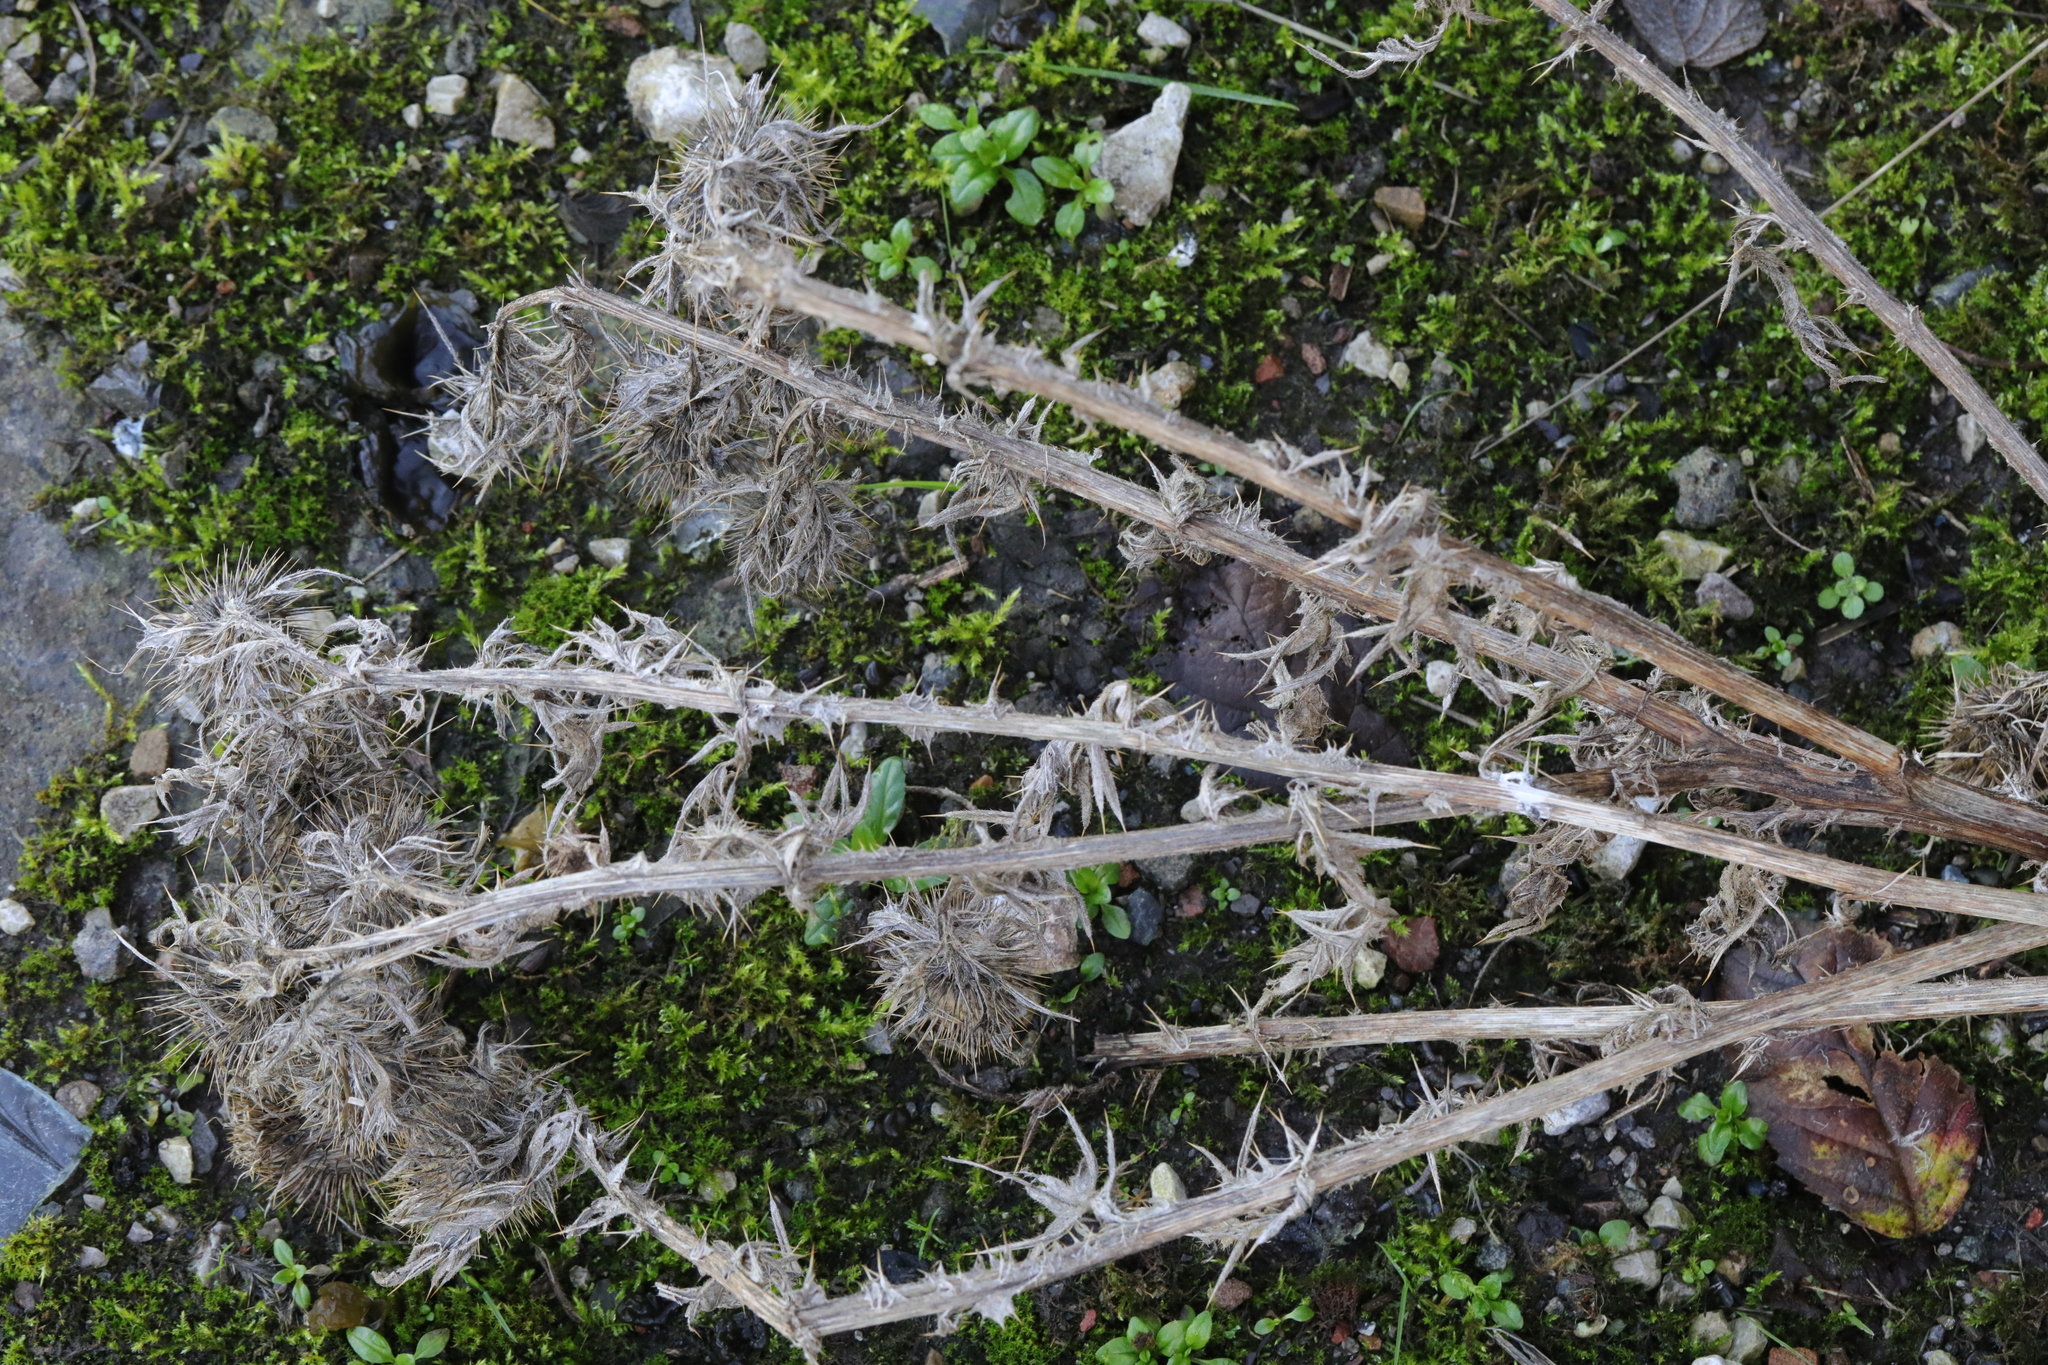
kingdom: Plantae
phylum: Tracheophyta
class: Magnoliopsida
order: Asterales
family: Asteraceae
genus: Cirsium
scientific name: Cirsium vulgare
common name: Bull thistle
